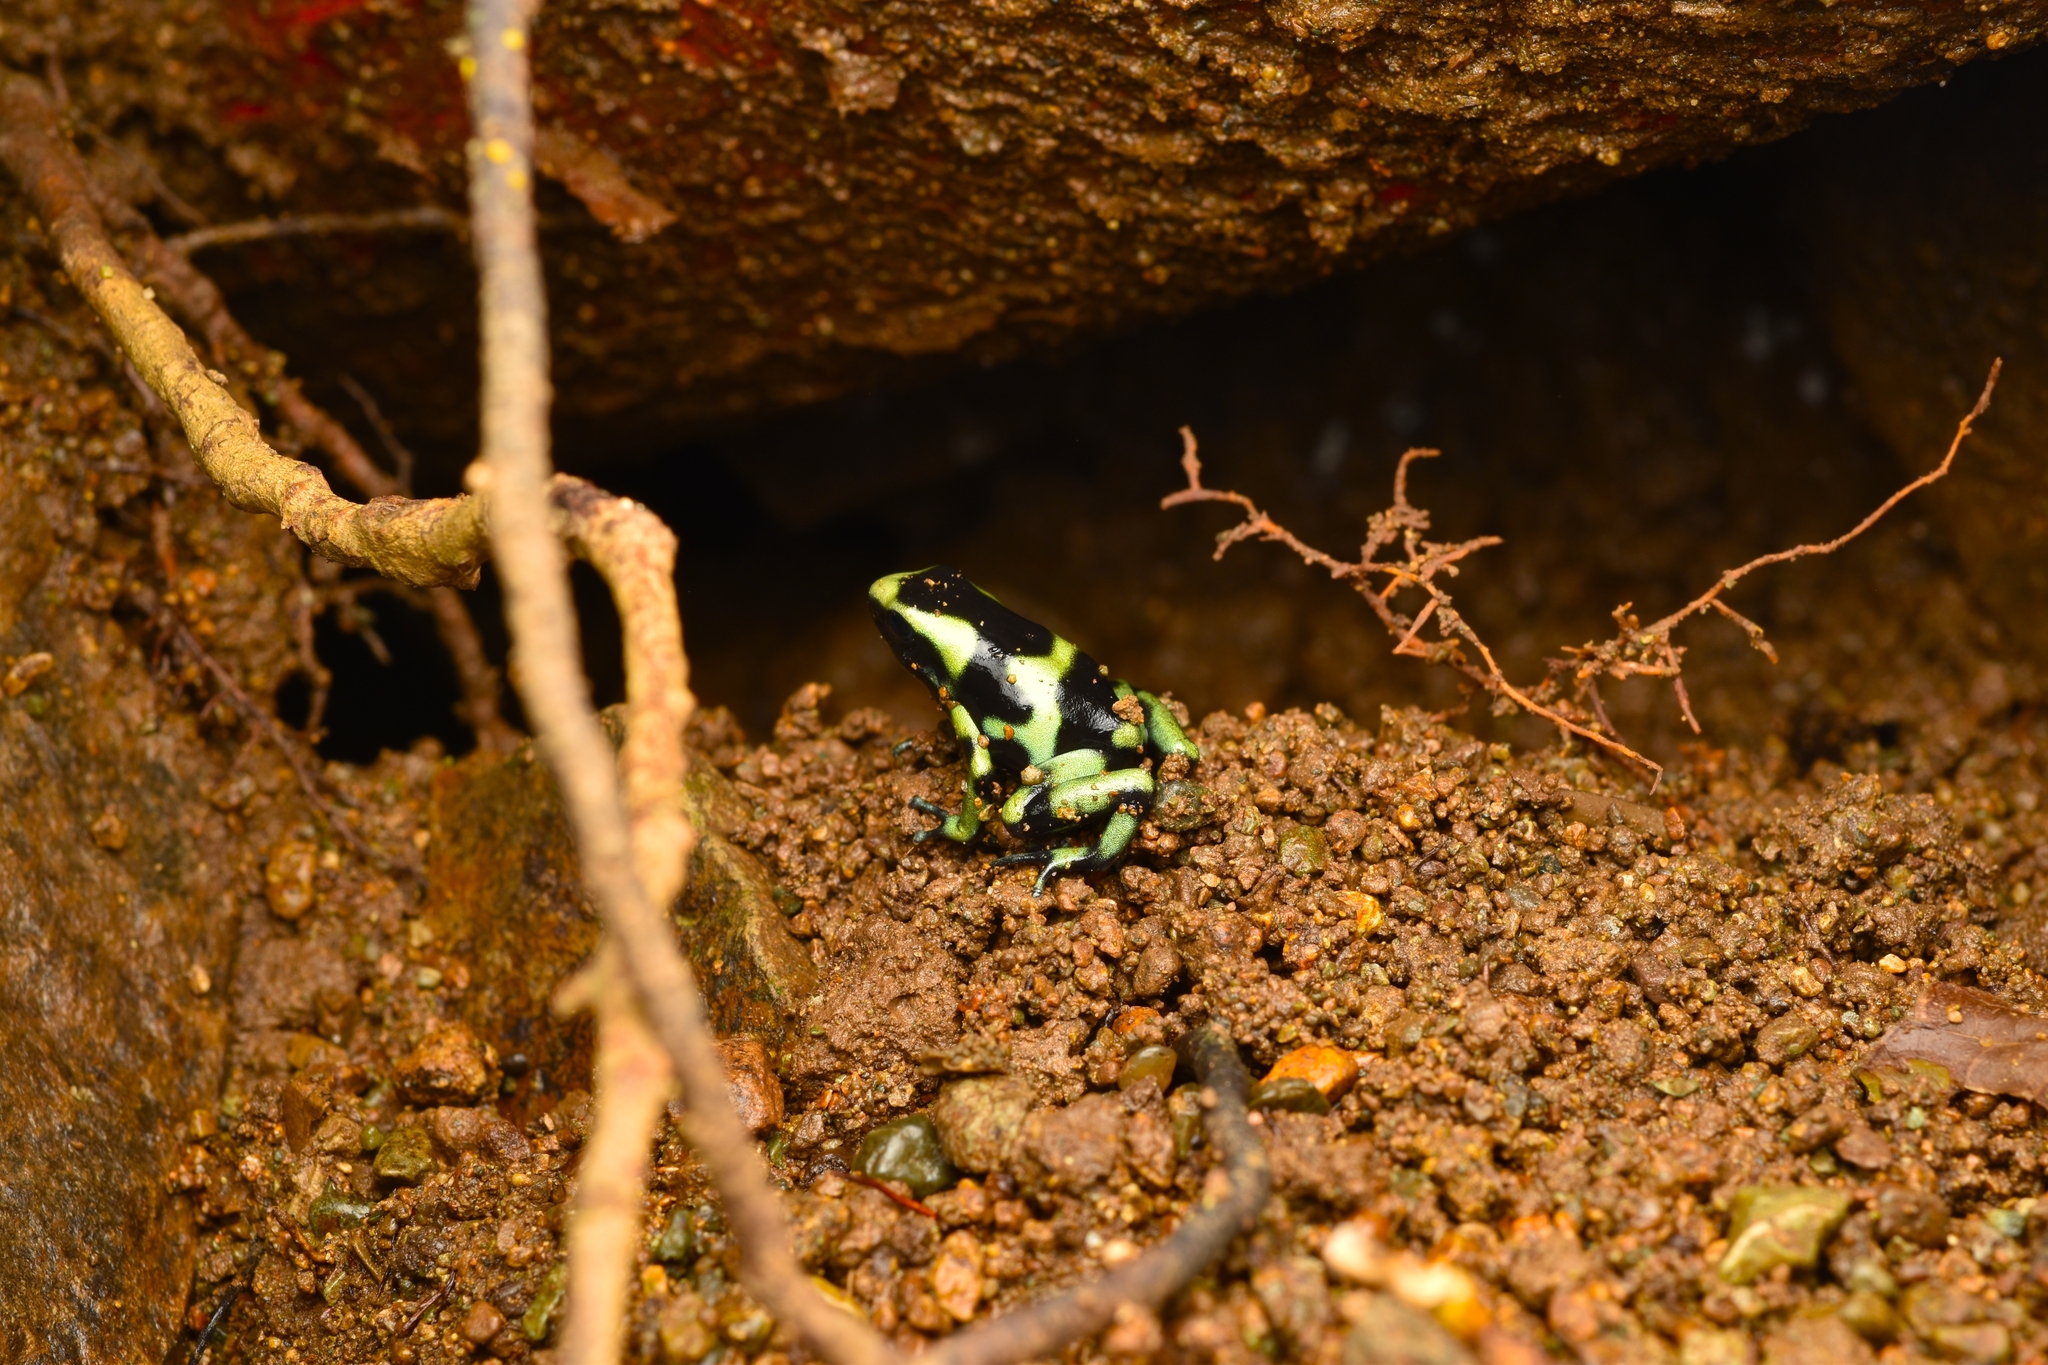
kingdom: Animalia
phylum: Chordata
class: Amphibia
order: Anura
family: Dendrobatidae
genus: Dendrobates
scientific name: Dendrobates auratus
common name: Green and black poison dart frog
